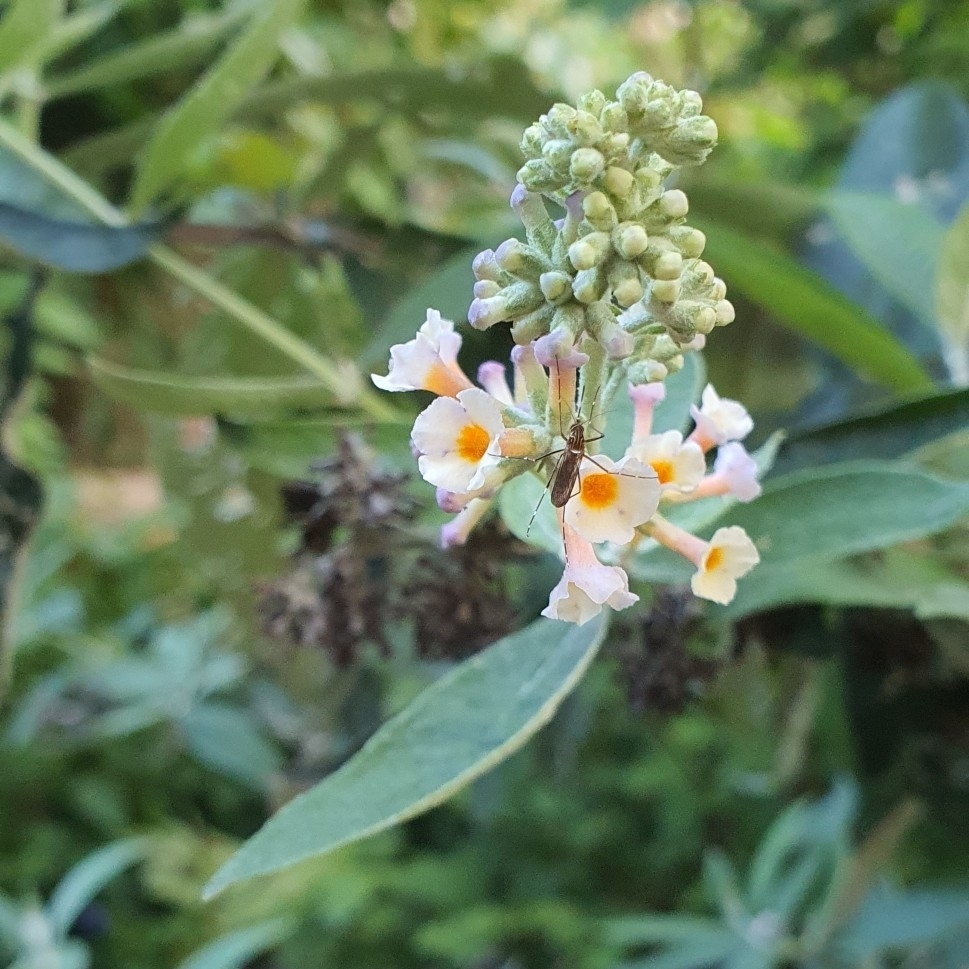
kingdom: Animalia
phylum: Arthropoda
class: Insecta
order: Diptera
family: Culicidae
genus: Aedes
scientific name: Aedes notoscriptus
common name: Australian backyard mosquito
